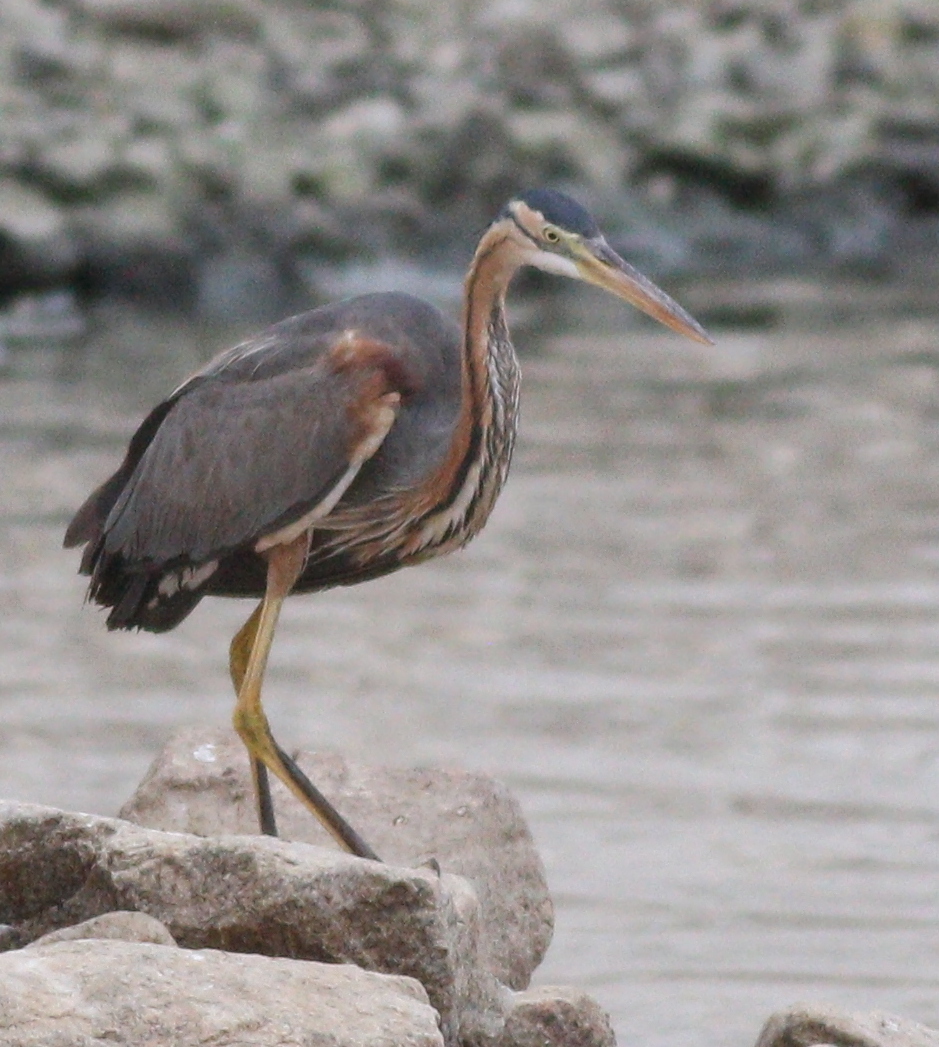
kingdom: Animalia
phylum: Chordata
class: Aves
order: Pelecaniformes
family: Ardeidae
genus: Ardea
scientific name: Ardea purpurea
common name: Purple heron
